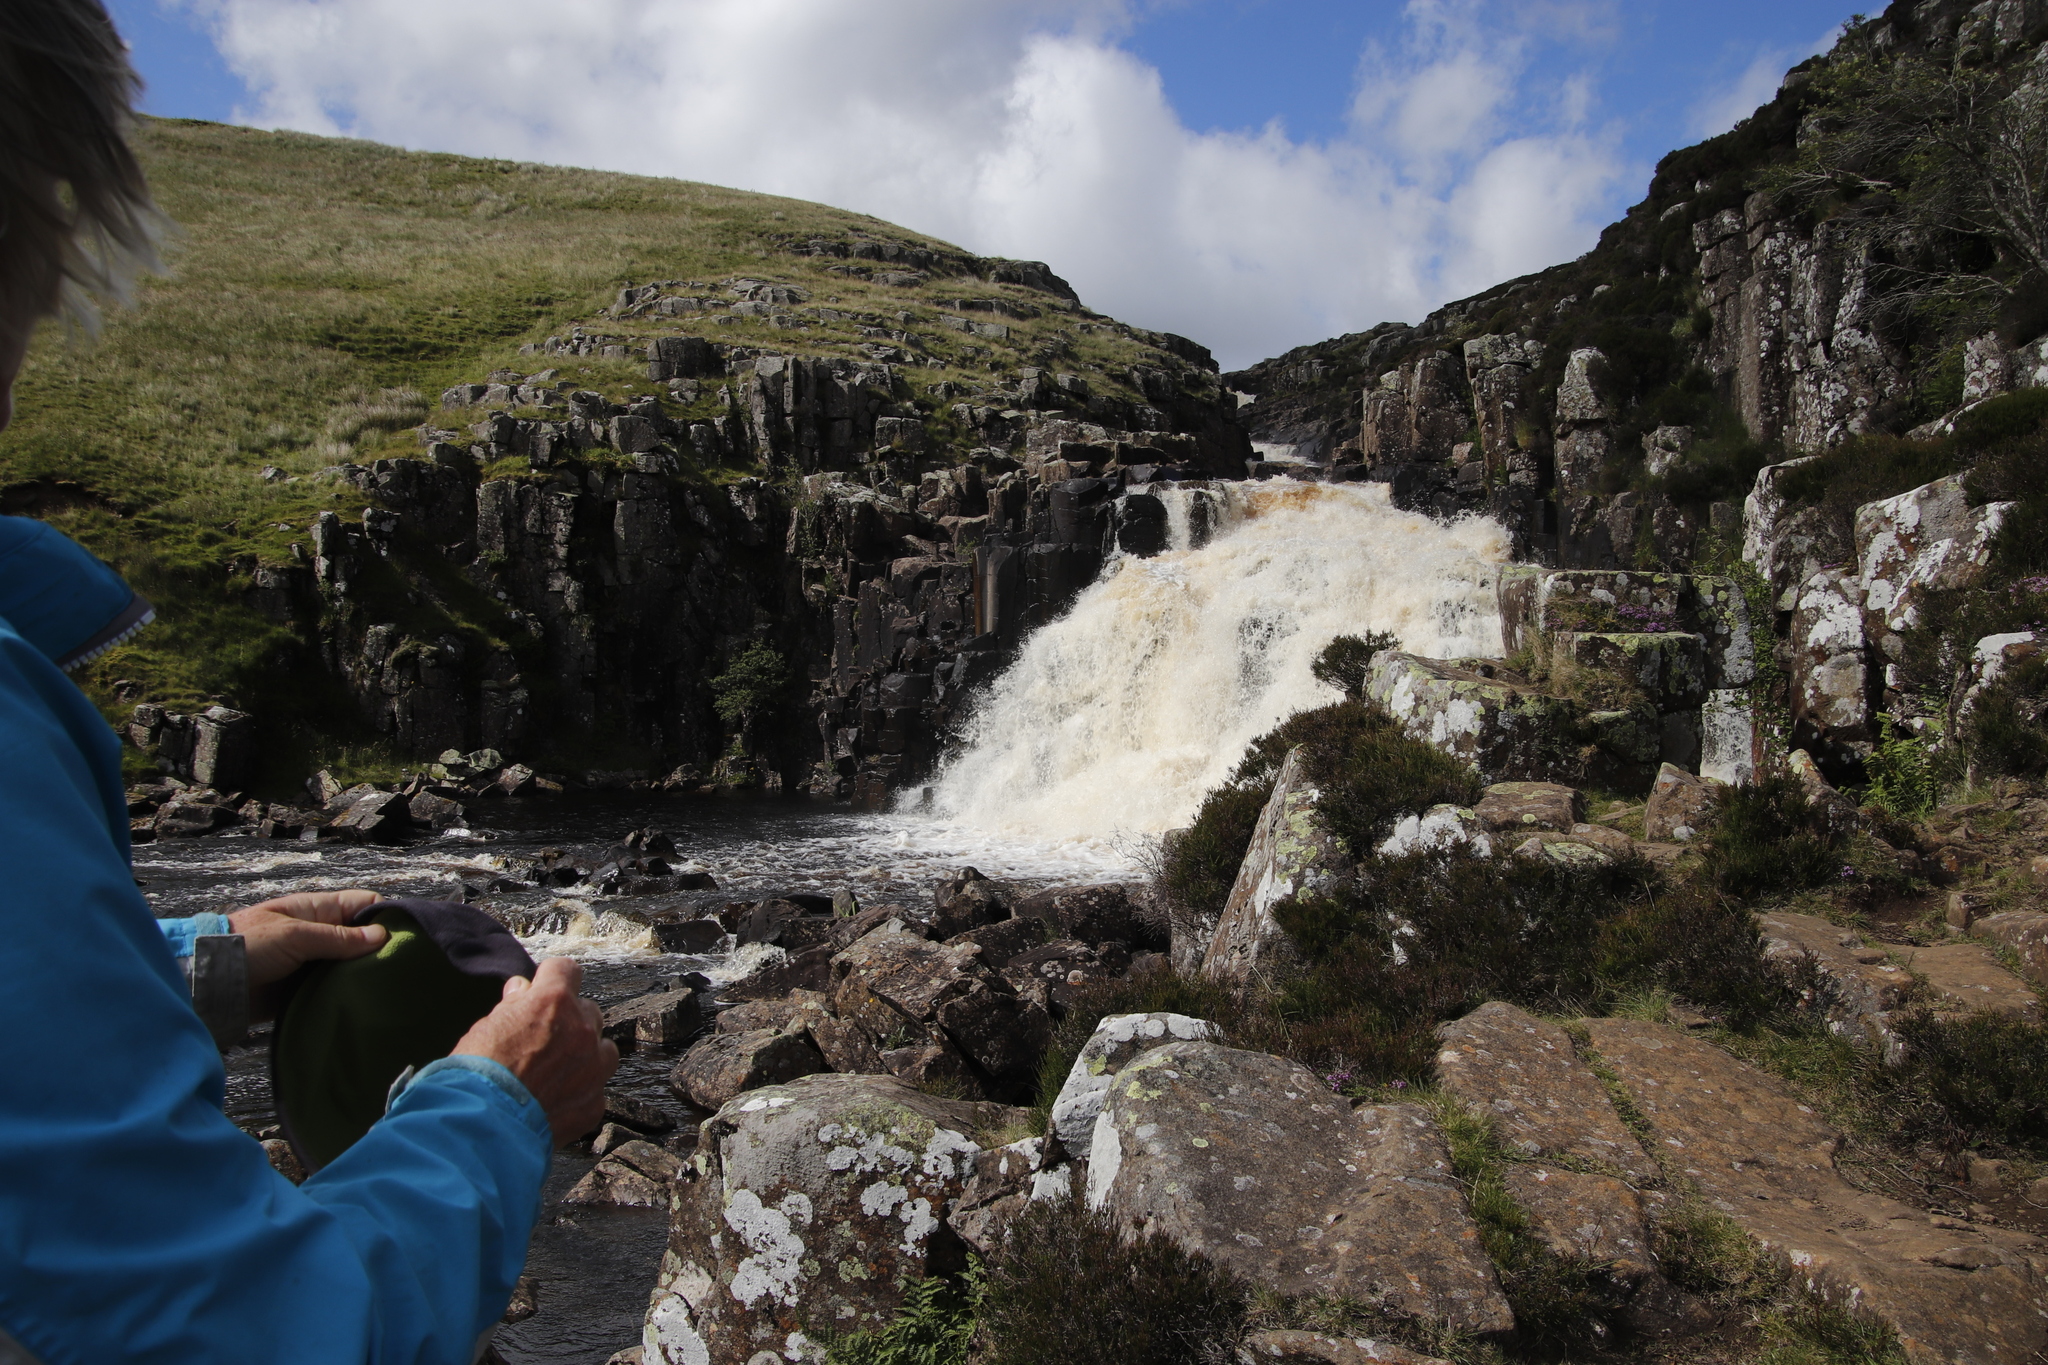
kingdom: Plantae
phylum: Tracheophyta
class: Magnoliopsida
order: Ericales
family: Ericaceae
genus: Calluna
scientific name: Calluna vulgaris
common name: Heather
